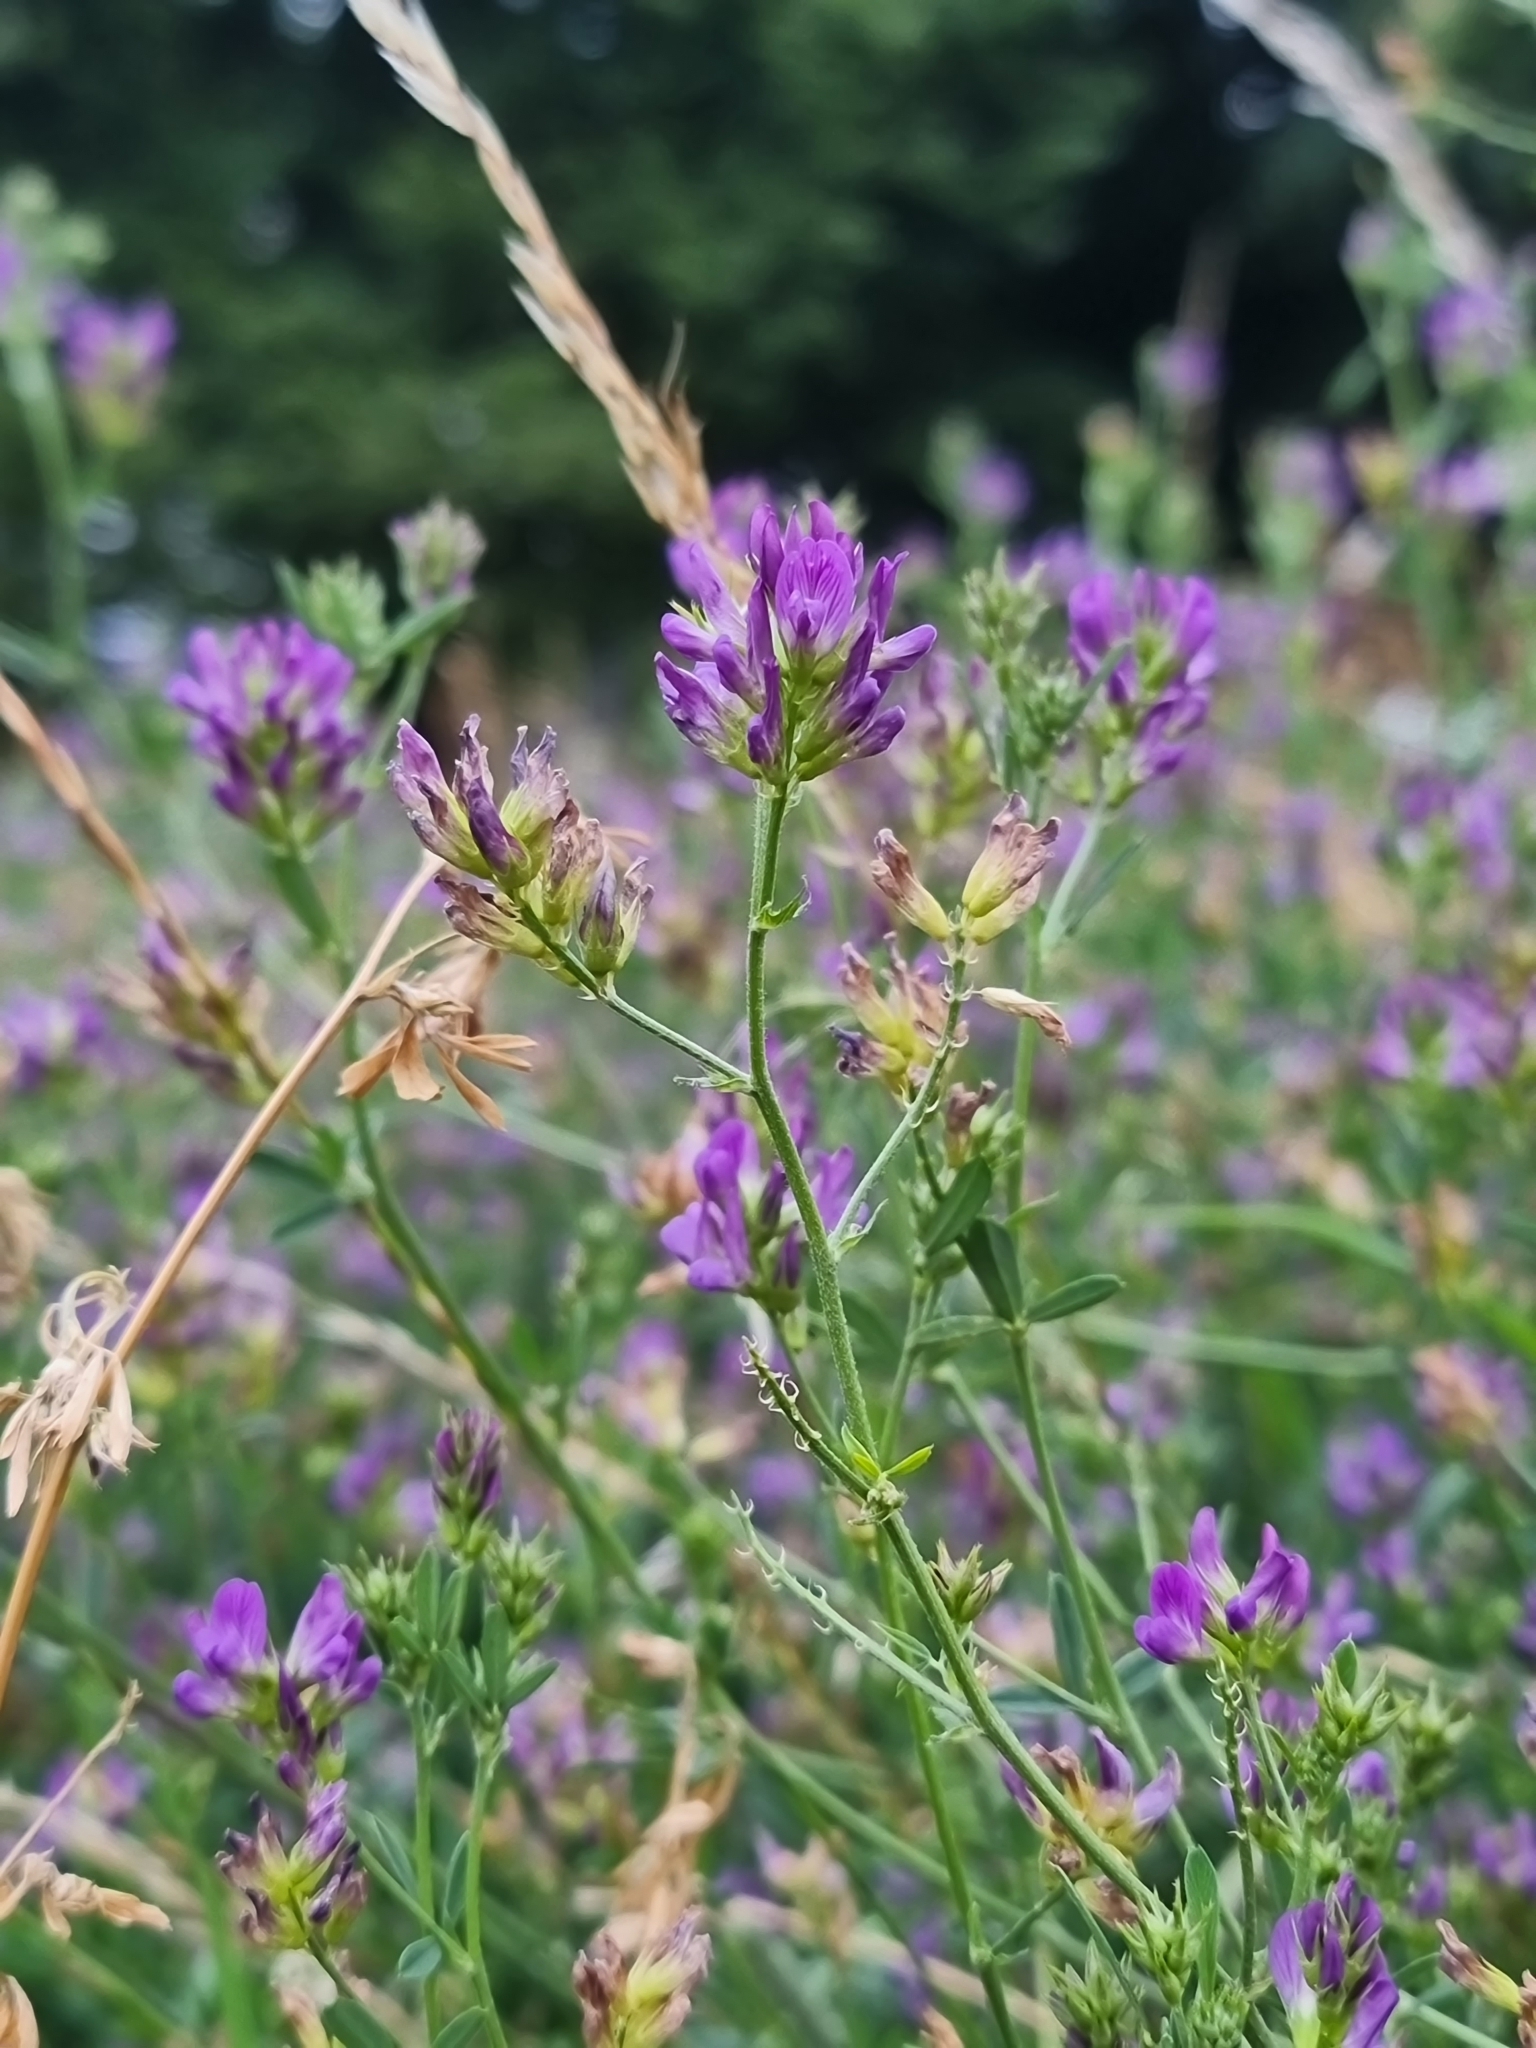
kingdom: Plantae
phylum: Tracheophyta
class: Magnoliopsida
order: Fabales
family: Fabaceae
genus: Medicago
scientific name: Medicago sativa
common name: Alfalfa
